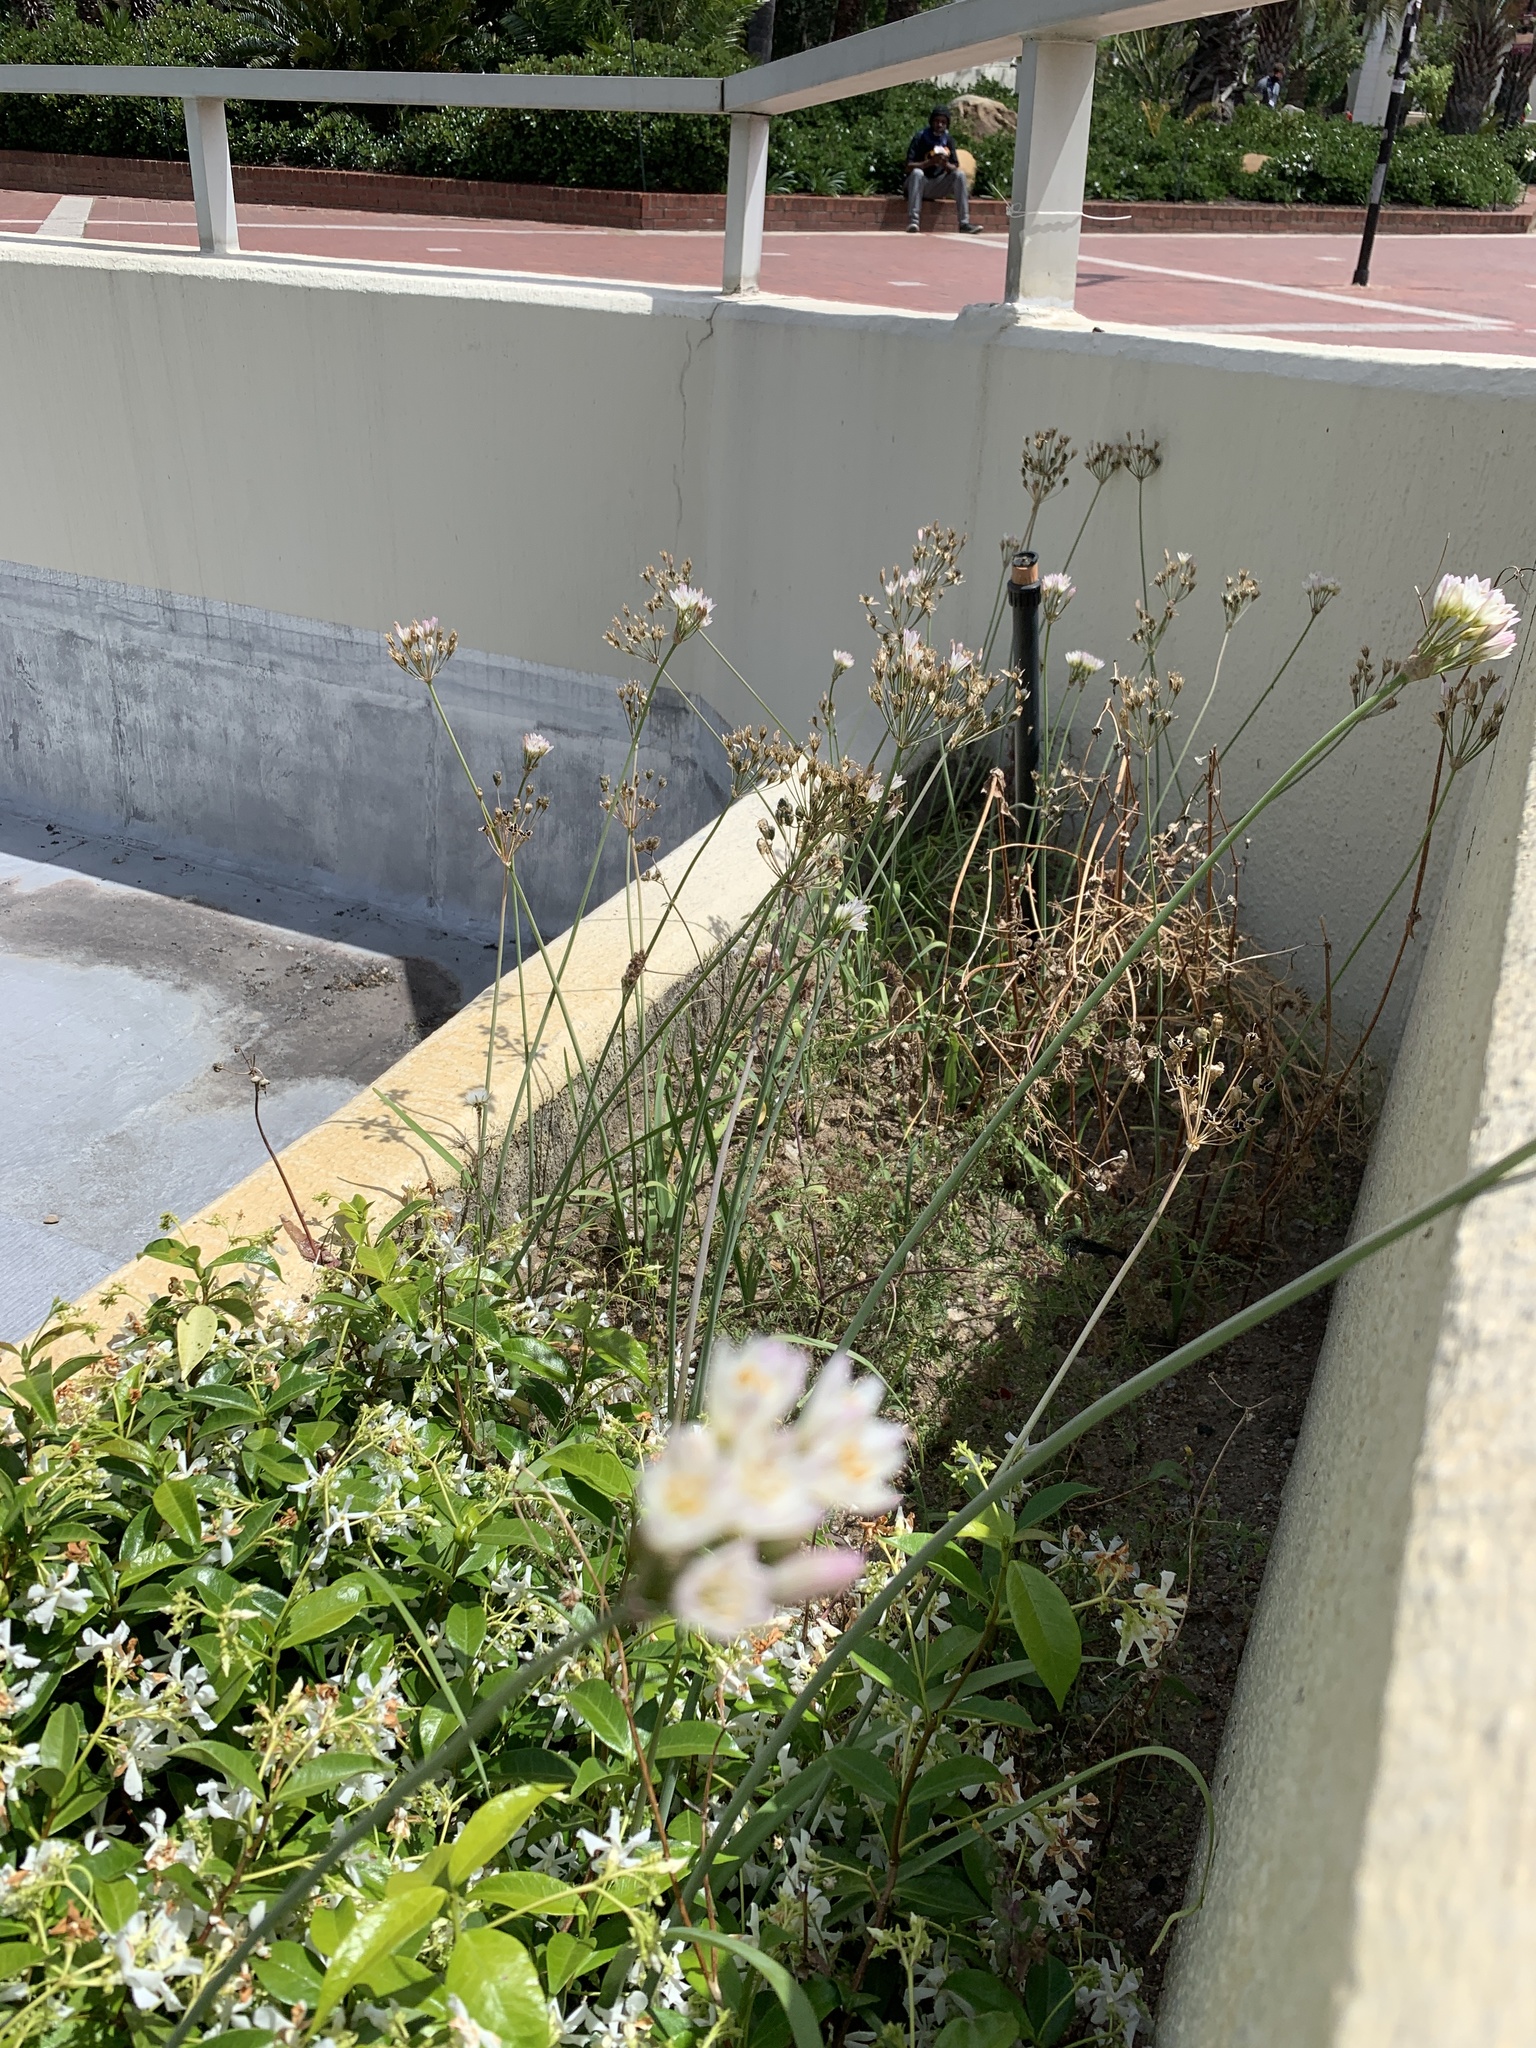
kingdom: Plantae
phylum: Tracheophyta
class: Liliopsida
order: Asparagales
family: Amaryllidaceae
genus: Nothoscordum
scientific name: Nothoscordum gracile
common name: Slender false garlic
